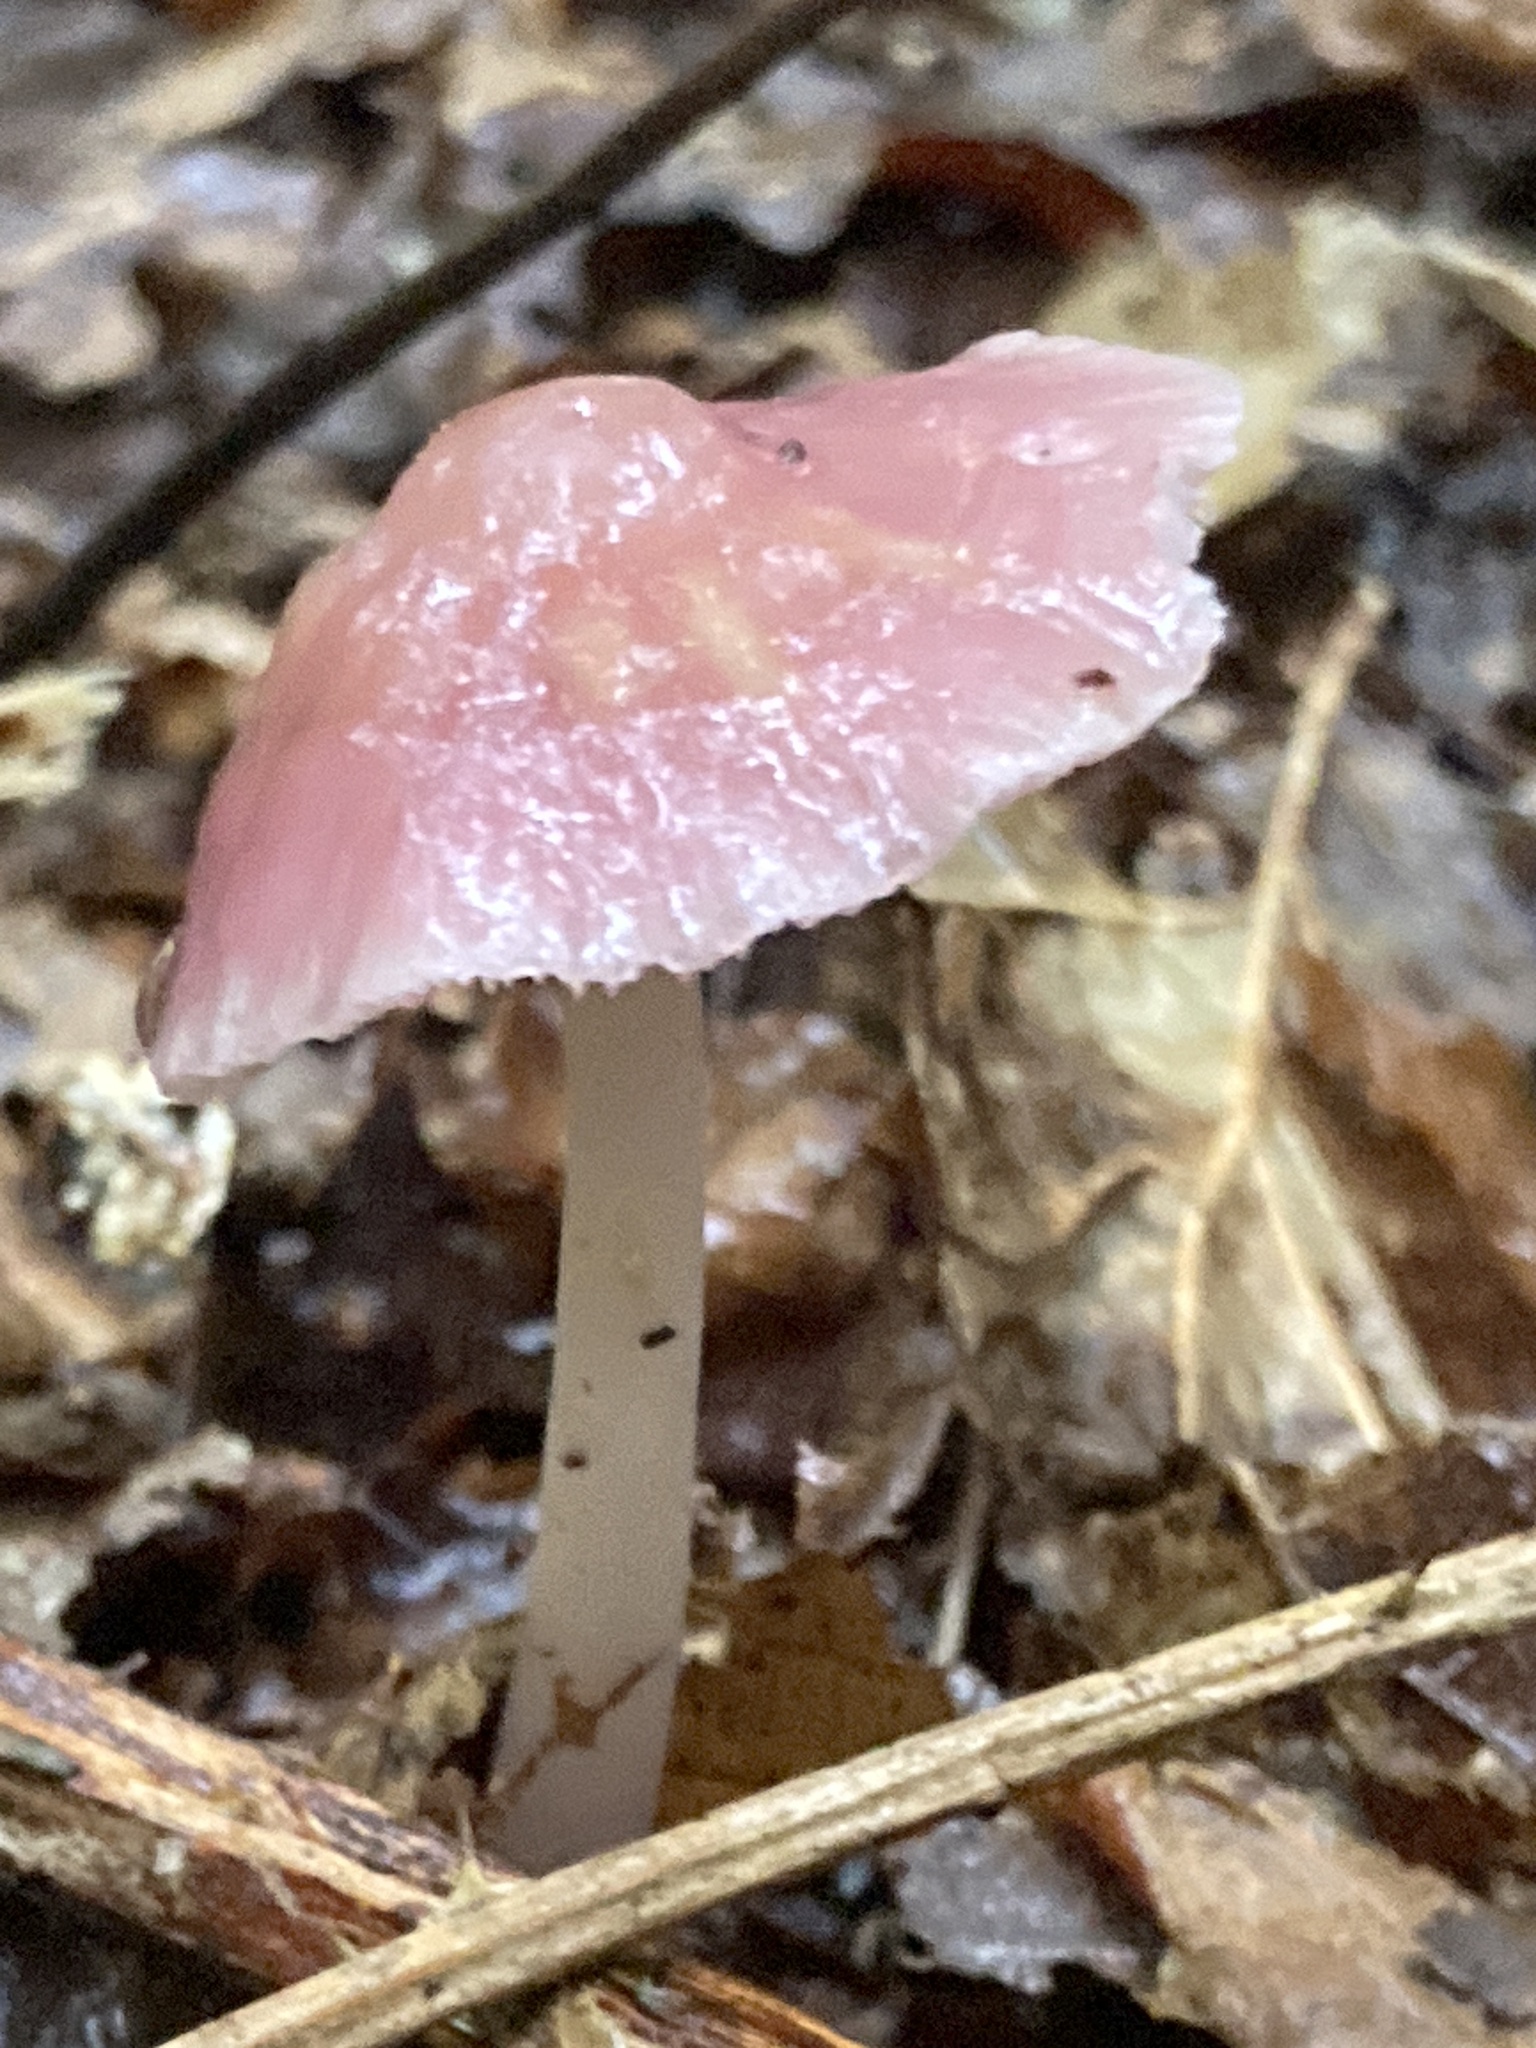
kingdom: Fungi
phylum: Basidiomycota
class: Agaricomycetes
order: Agaricales
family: Mycenaceae
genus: Mycena
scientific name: Mycena rosea
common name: Rosy bonnet
